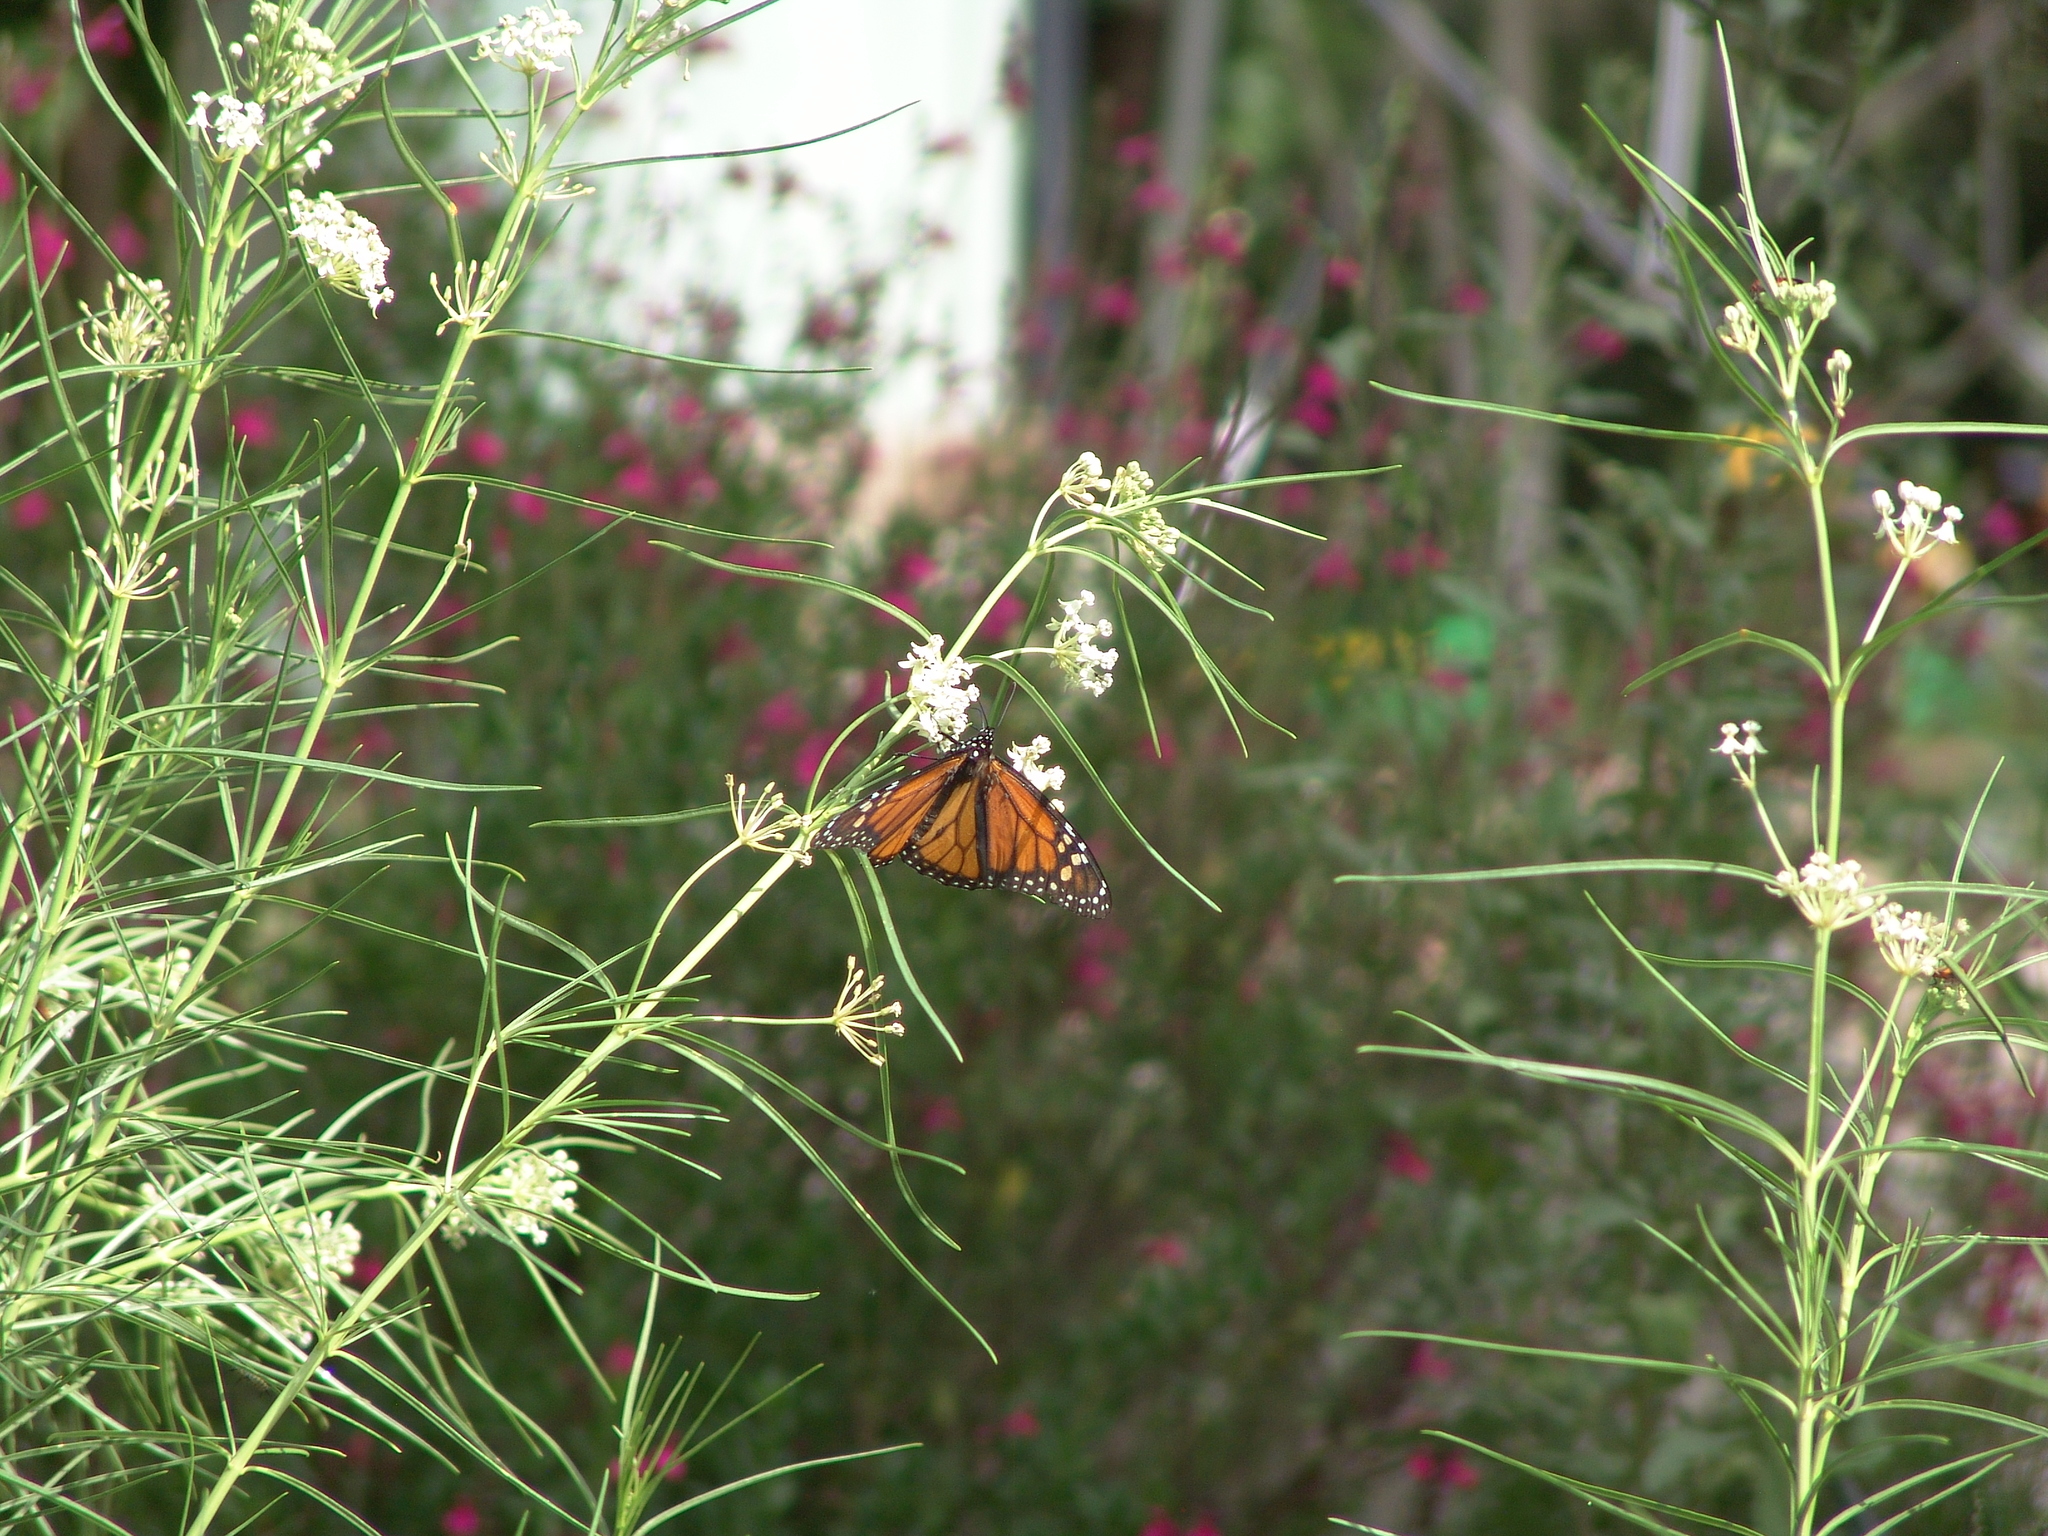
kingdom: Animalia
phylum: Arthropoda
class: Insecta
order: Lepidoptera
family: Nymphalidae
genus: Danaus
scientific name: Danaus plexippus
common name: Monarch
